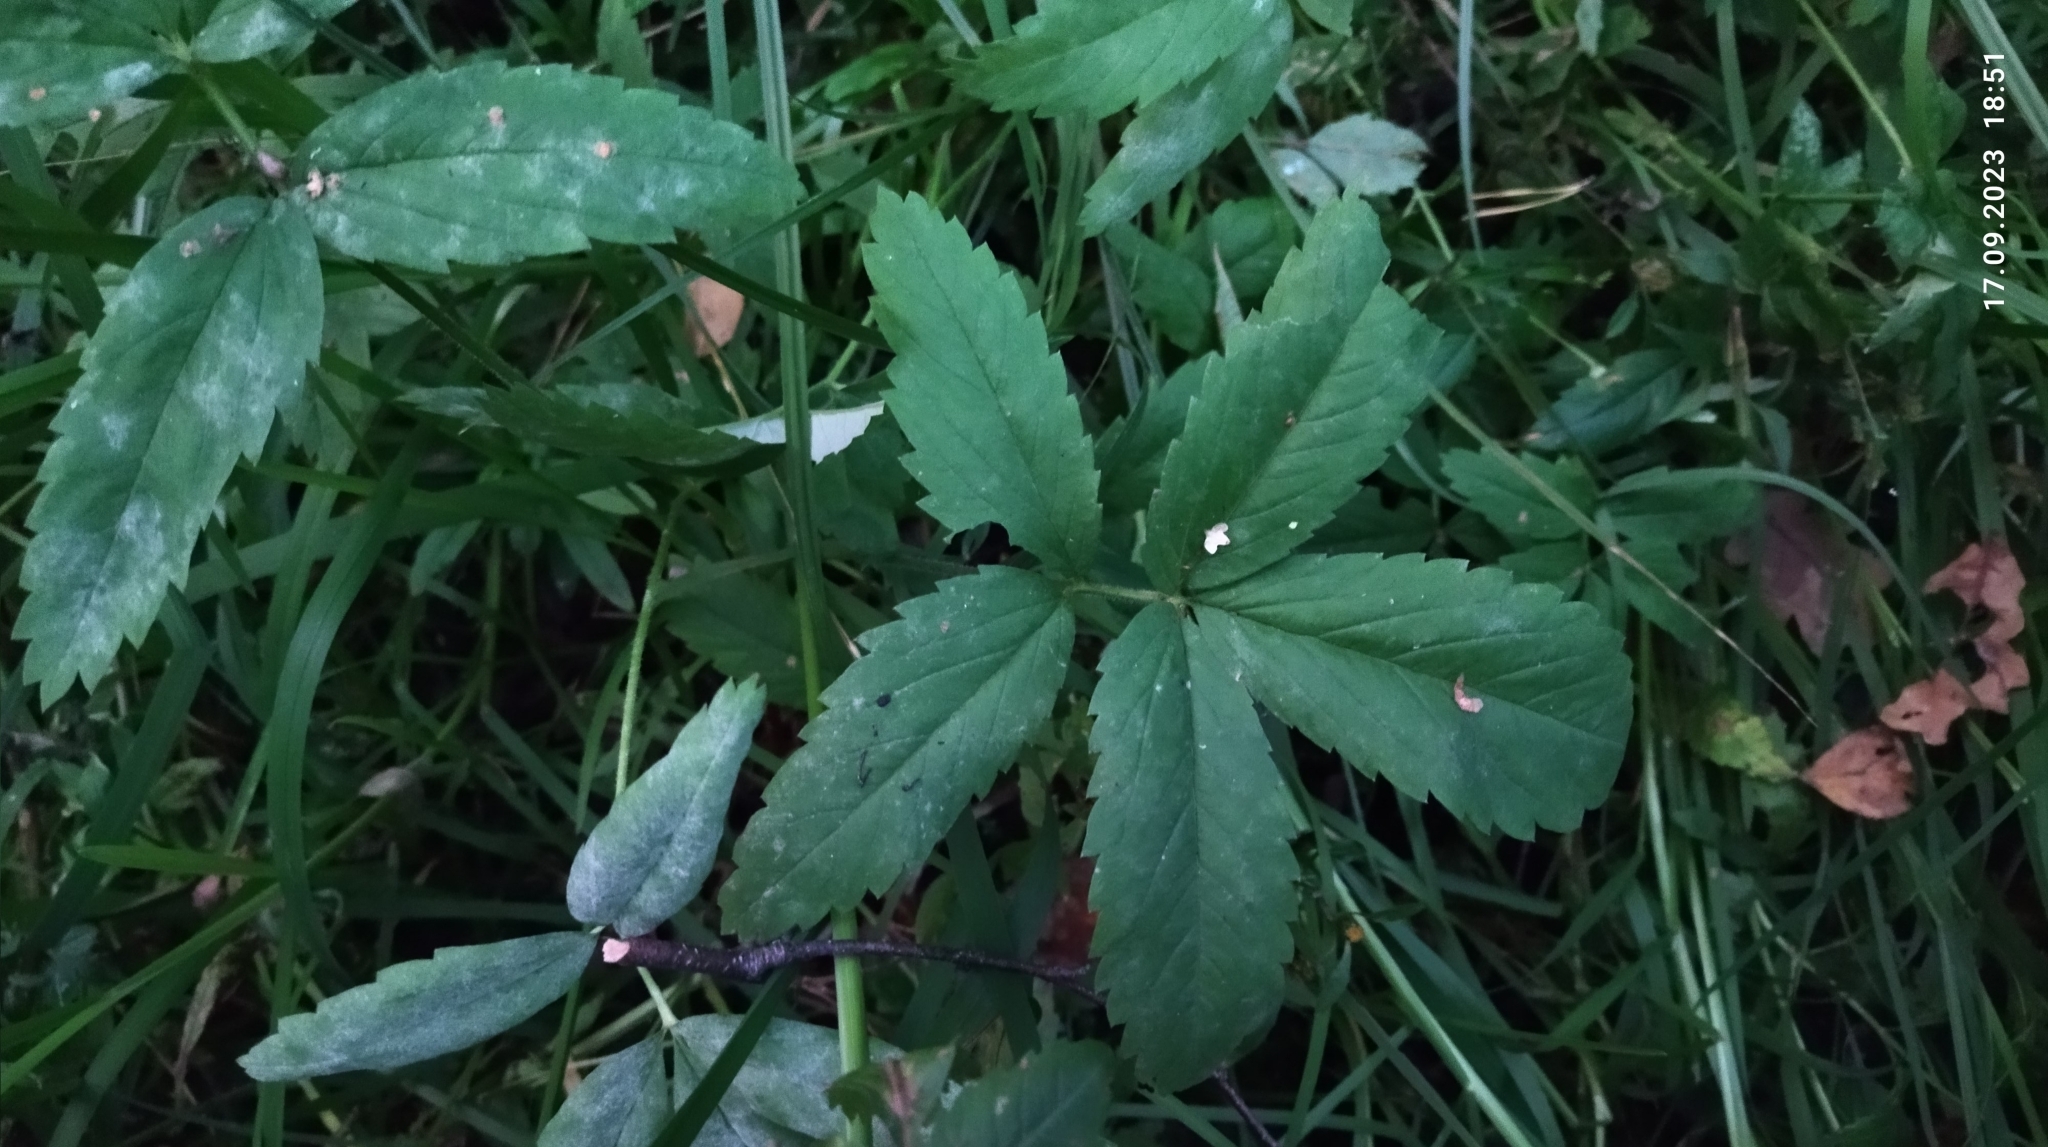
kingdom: Plantae
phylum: Tracheophyta
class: Magnoliopsida
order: Rosales
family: Rosaceae
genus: Comarum
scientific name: Comarum palustre
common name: Marsh cinquefoil
